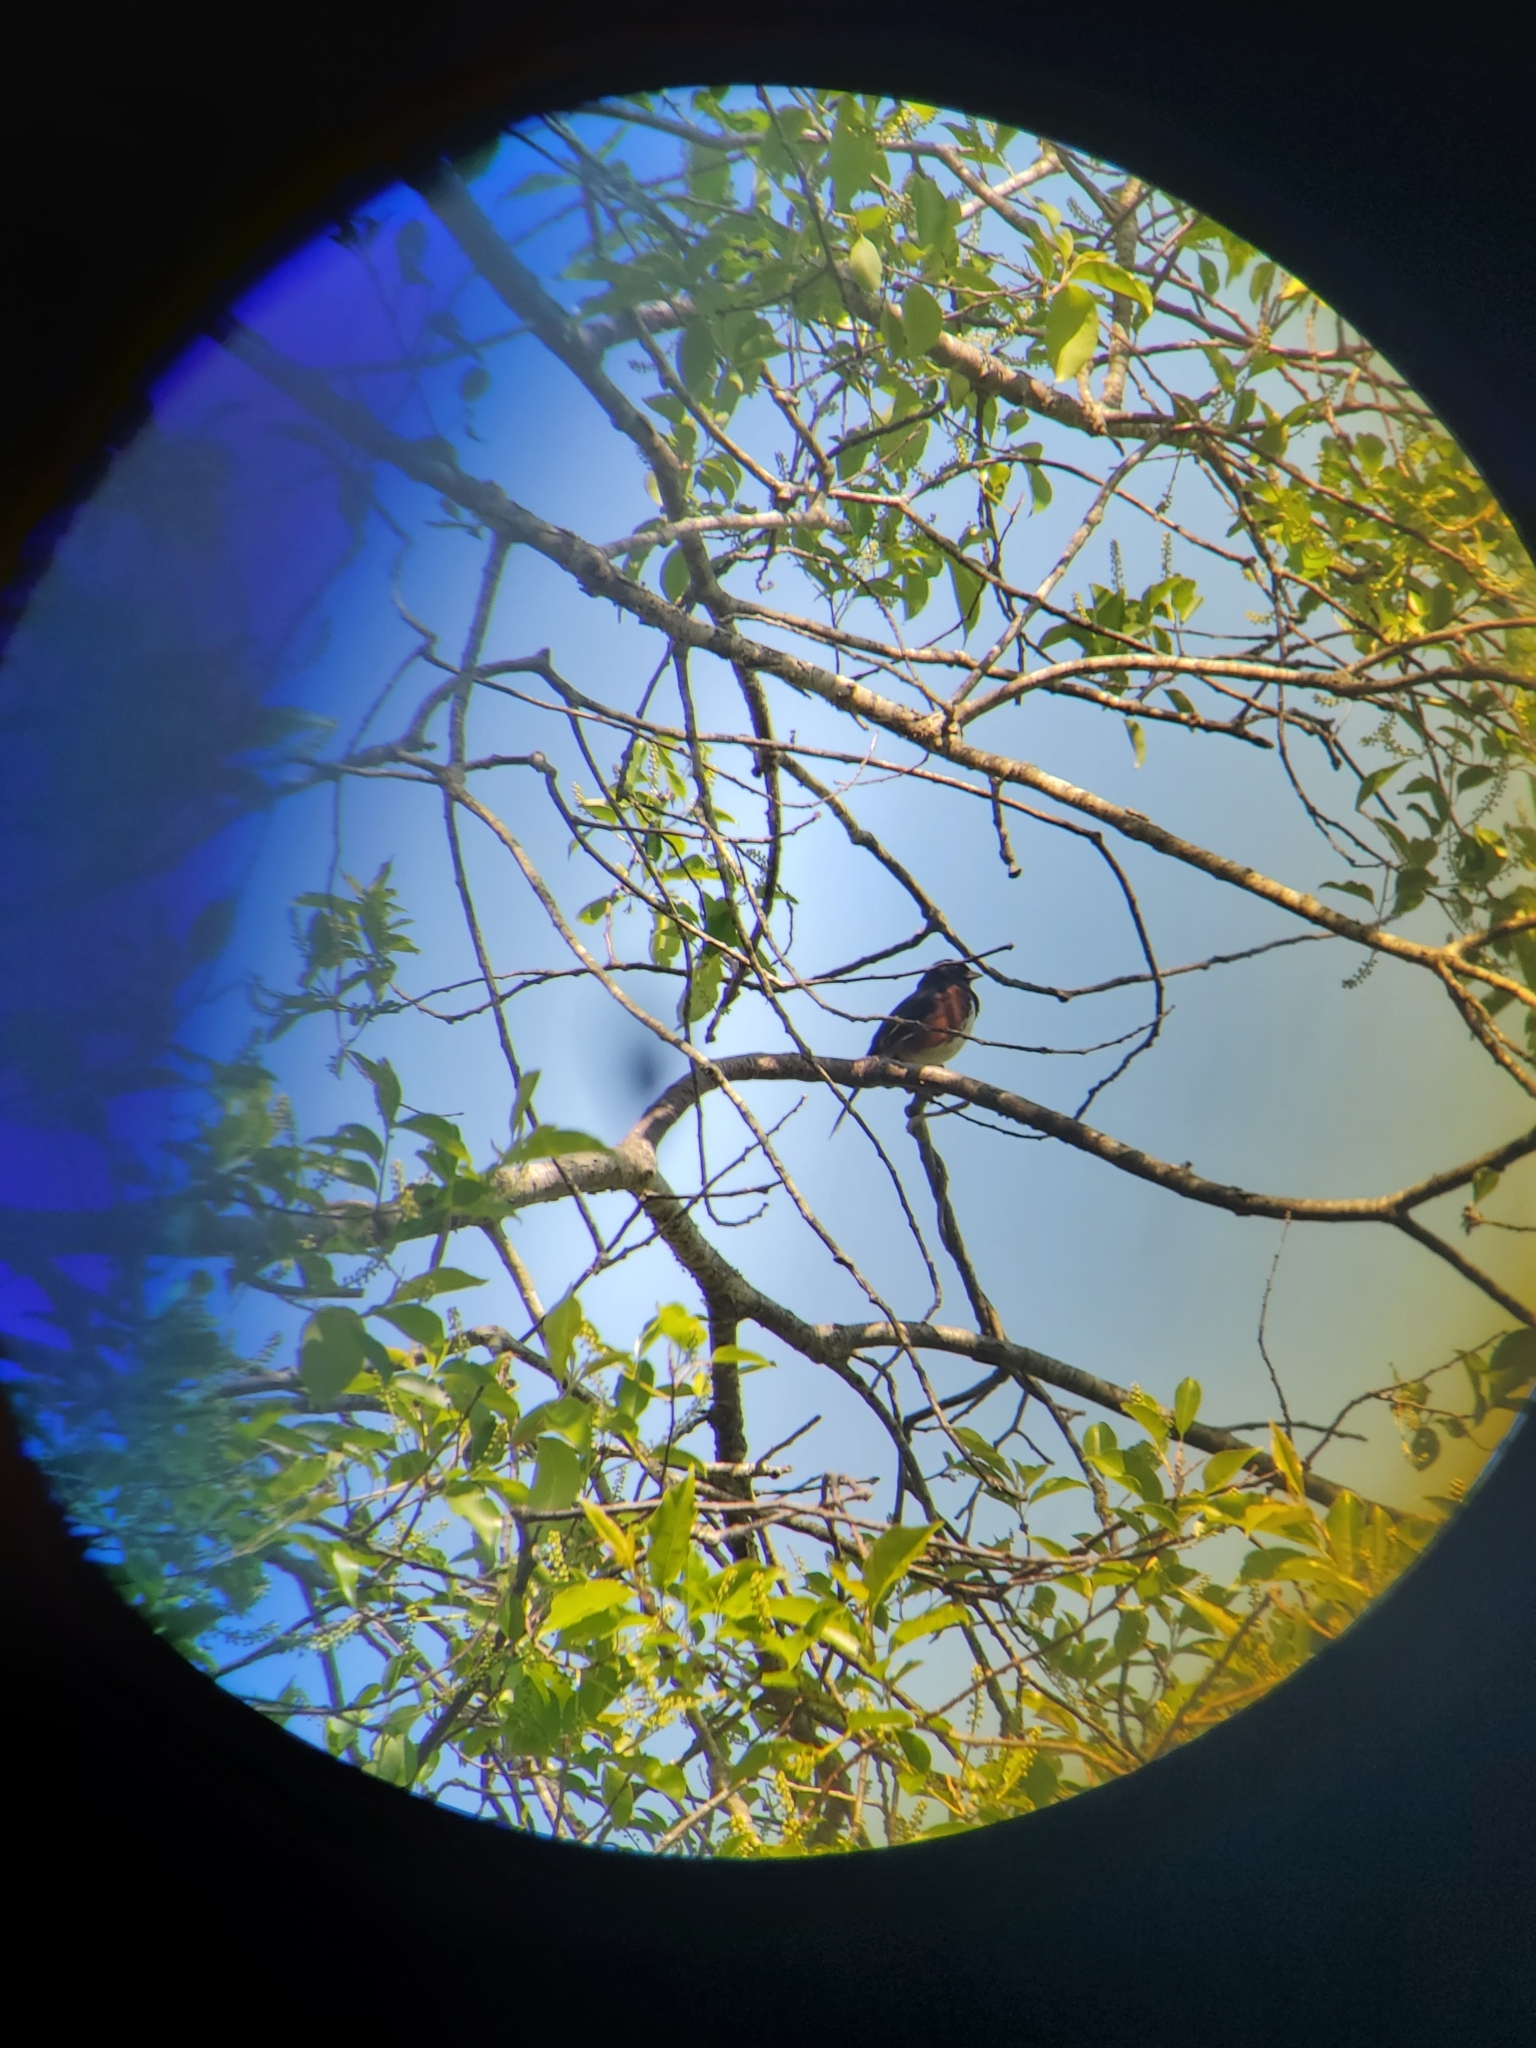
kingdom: Animalia
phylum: Chordata
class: Aves
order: Passeriformes
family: Passerellidae
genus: Pipilo
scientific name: Pipilo erythrophthalmus
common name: Eastern towhee
